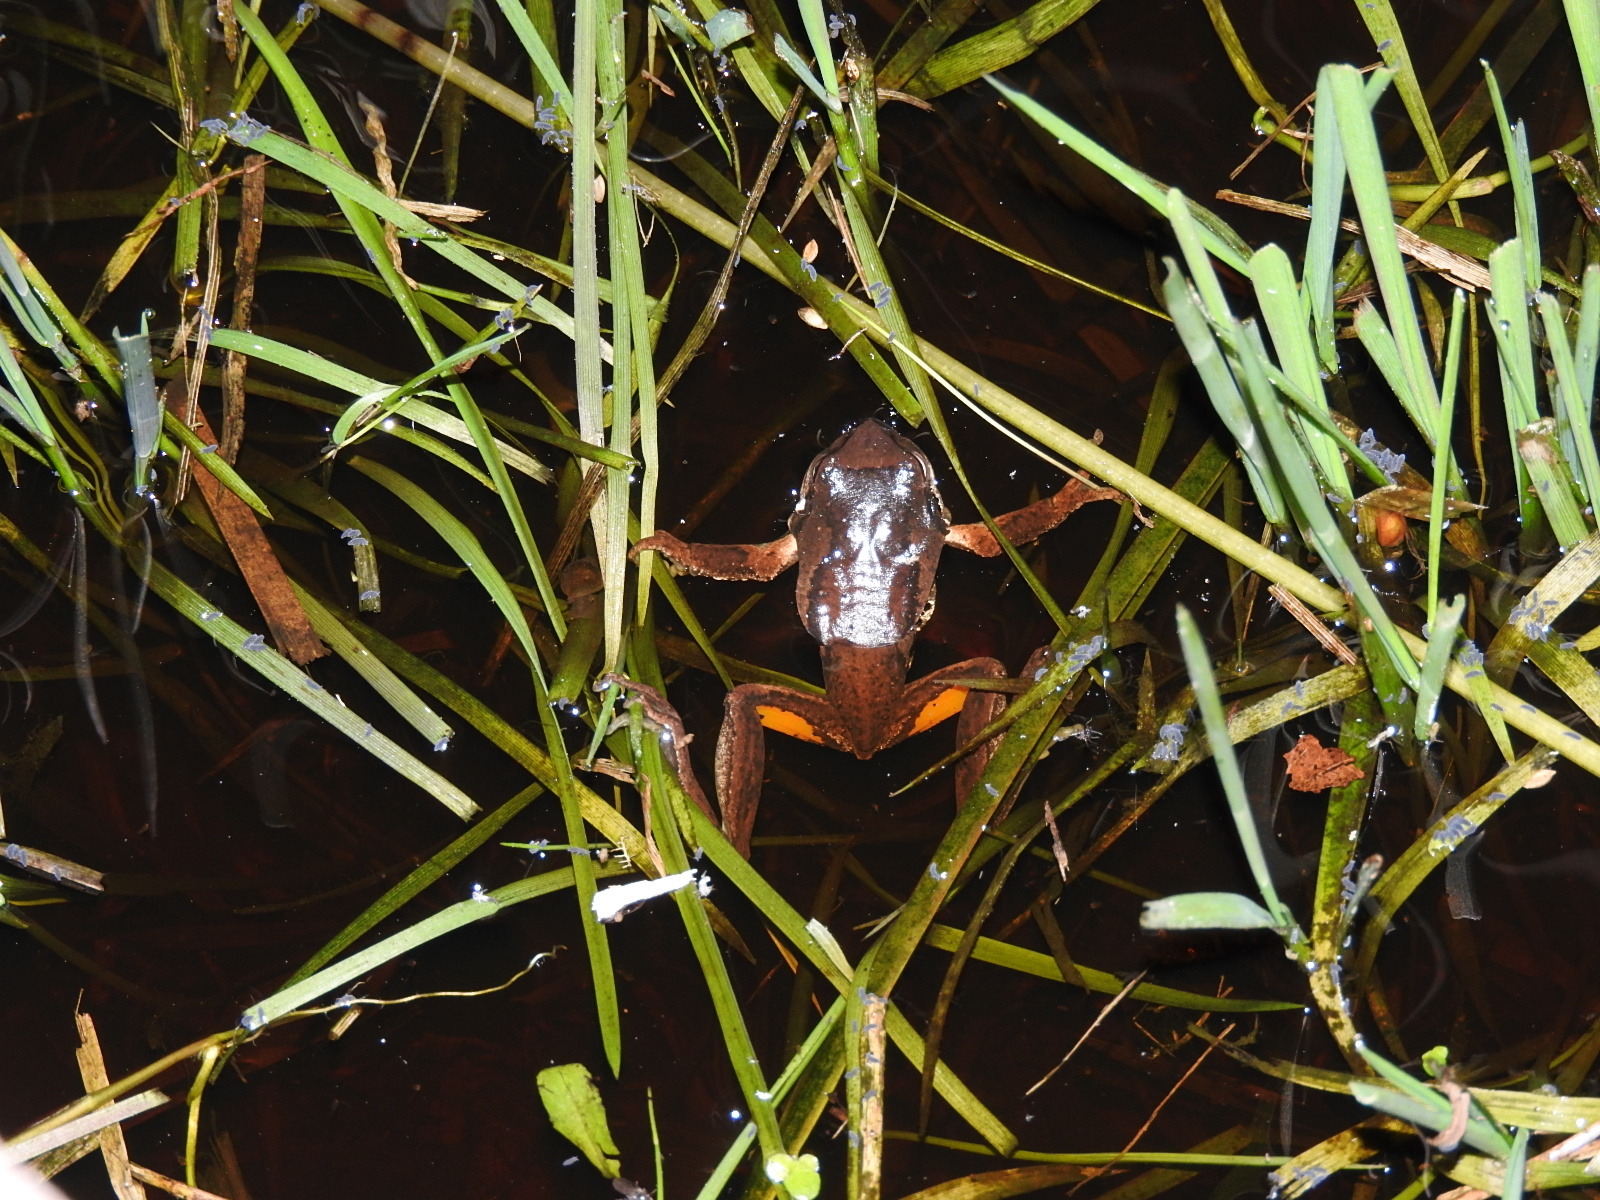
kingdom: Animalia
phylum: Chordata
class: Amphibia
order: Anura
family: Pelodryadidae
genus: Litoria
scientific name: Litoria ewingii
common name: Southern brown tree frog
